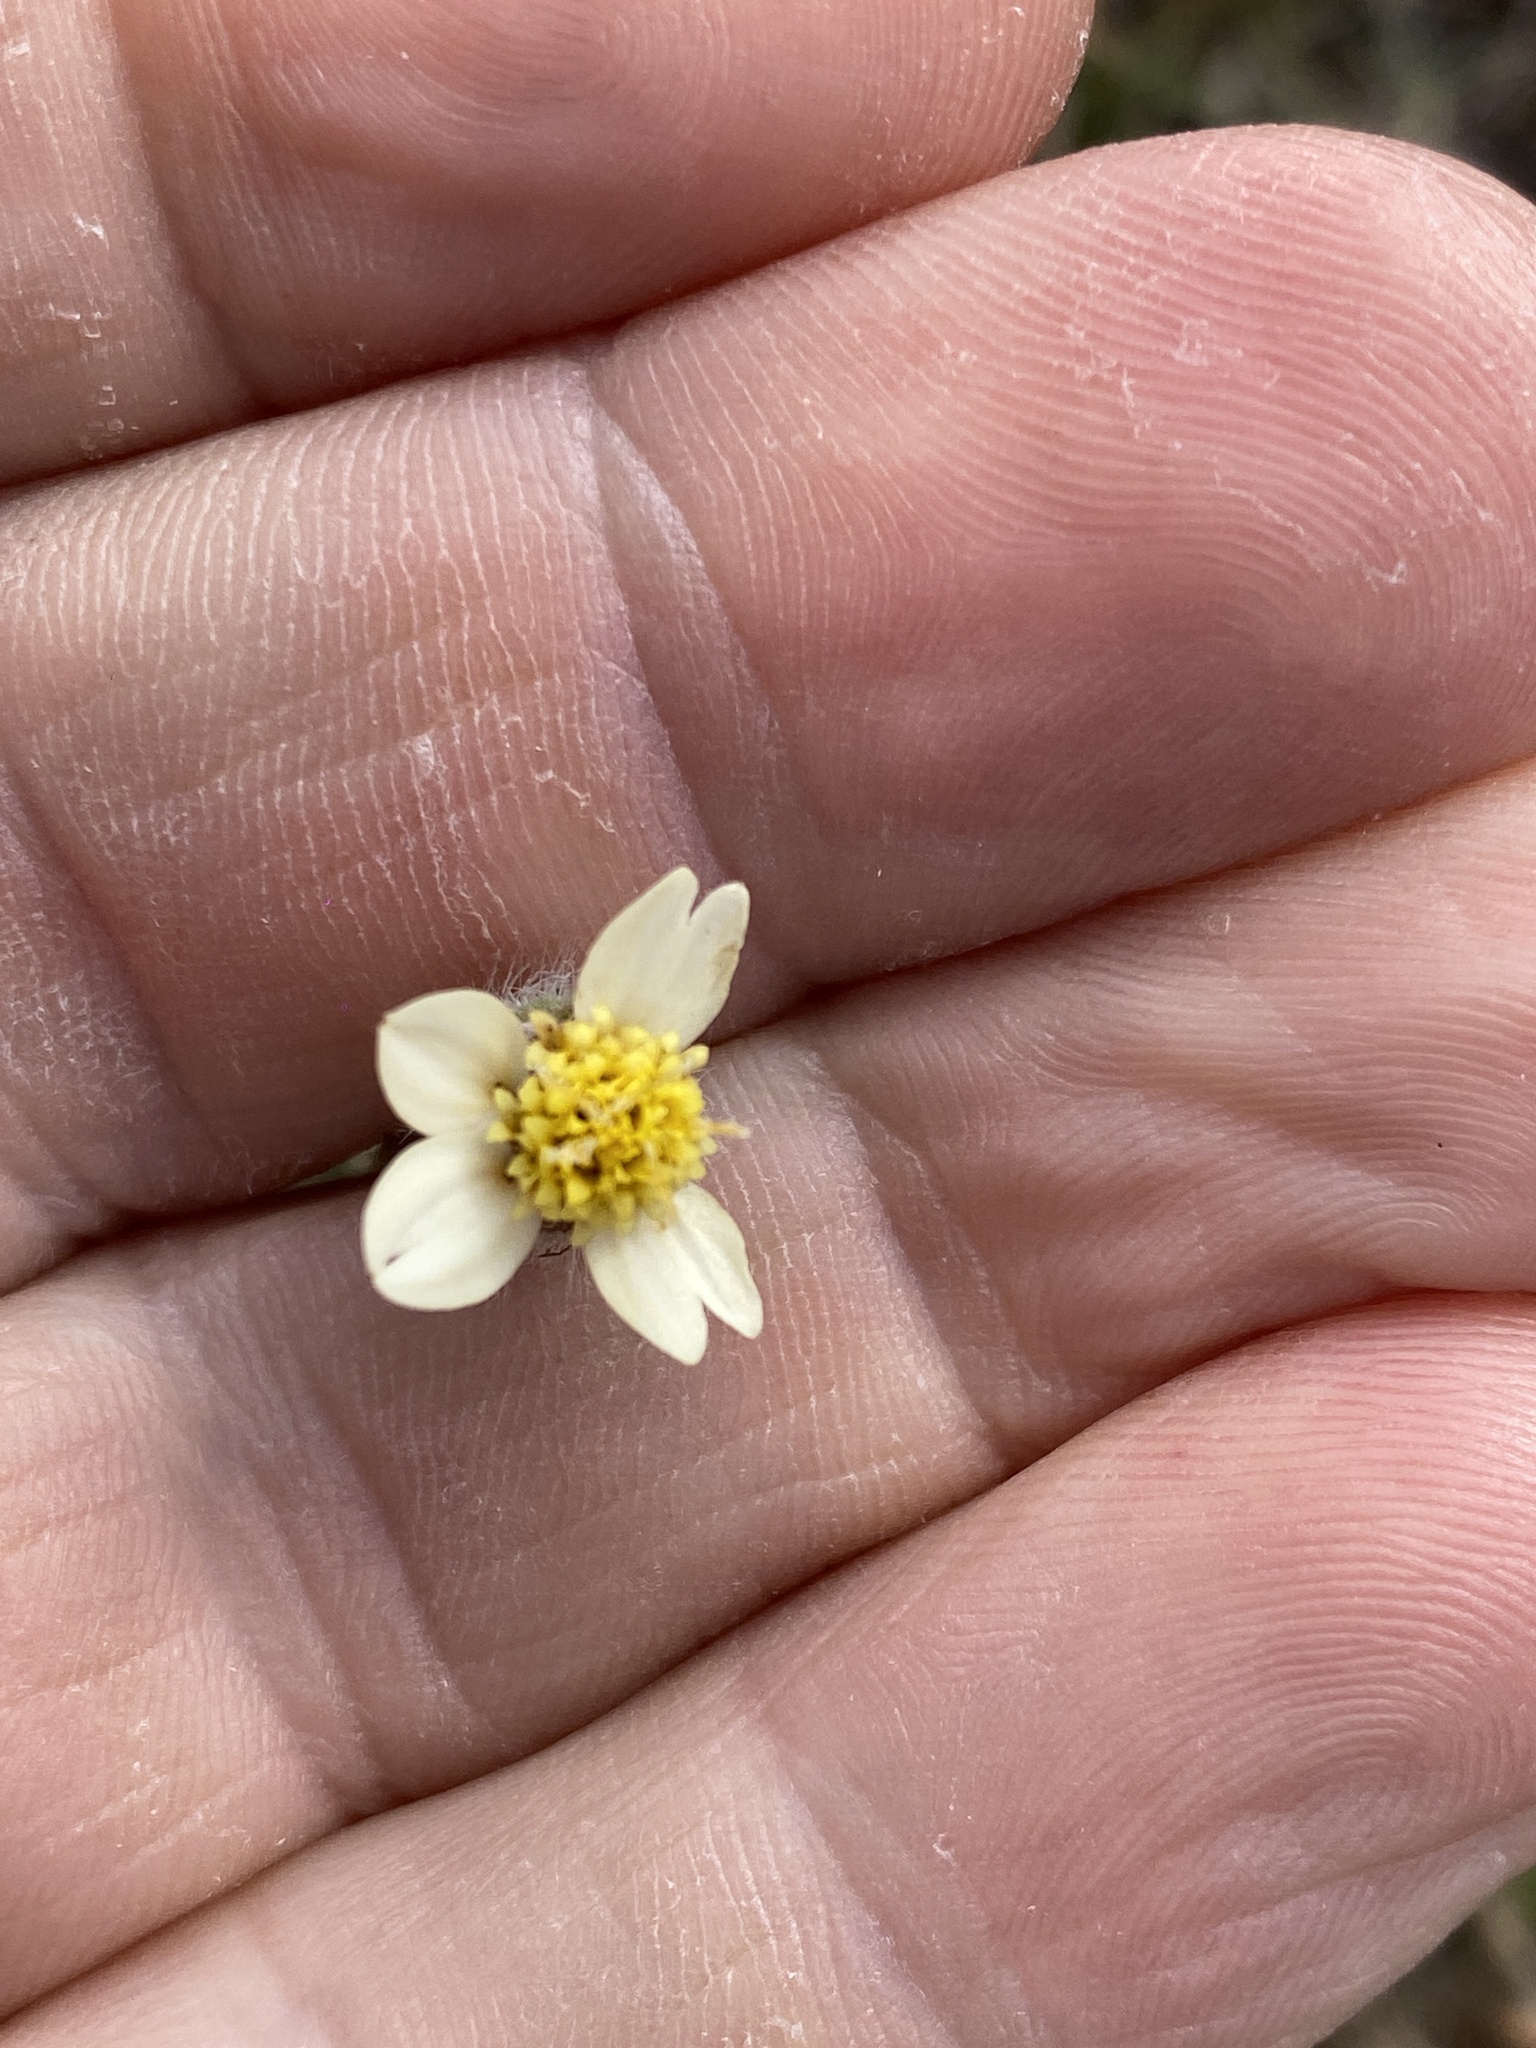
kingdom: Plantae
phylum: Tracheophyta
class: Magnoliopsida
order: Asterales
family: Asteraceae
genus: Tridax
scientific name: Tridax procumbens
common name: Coatbuttons
